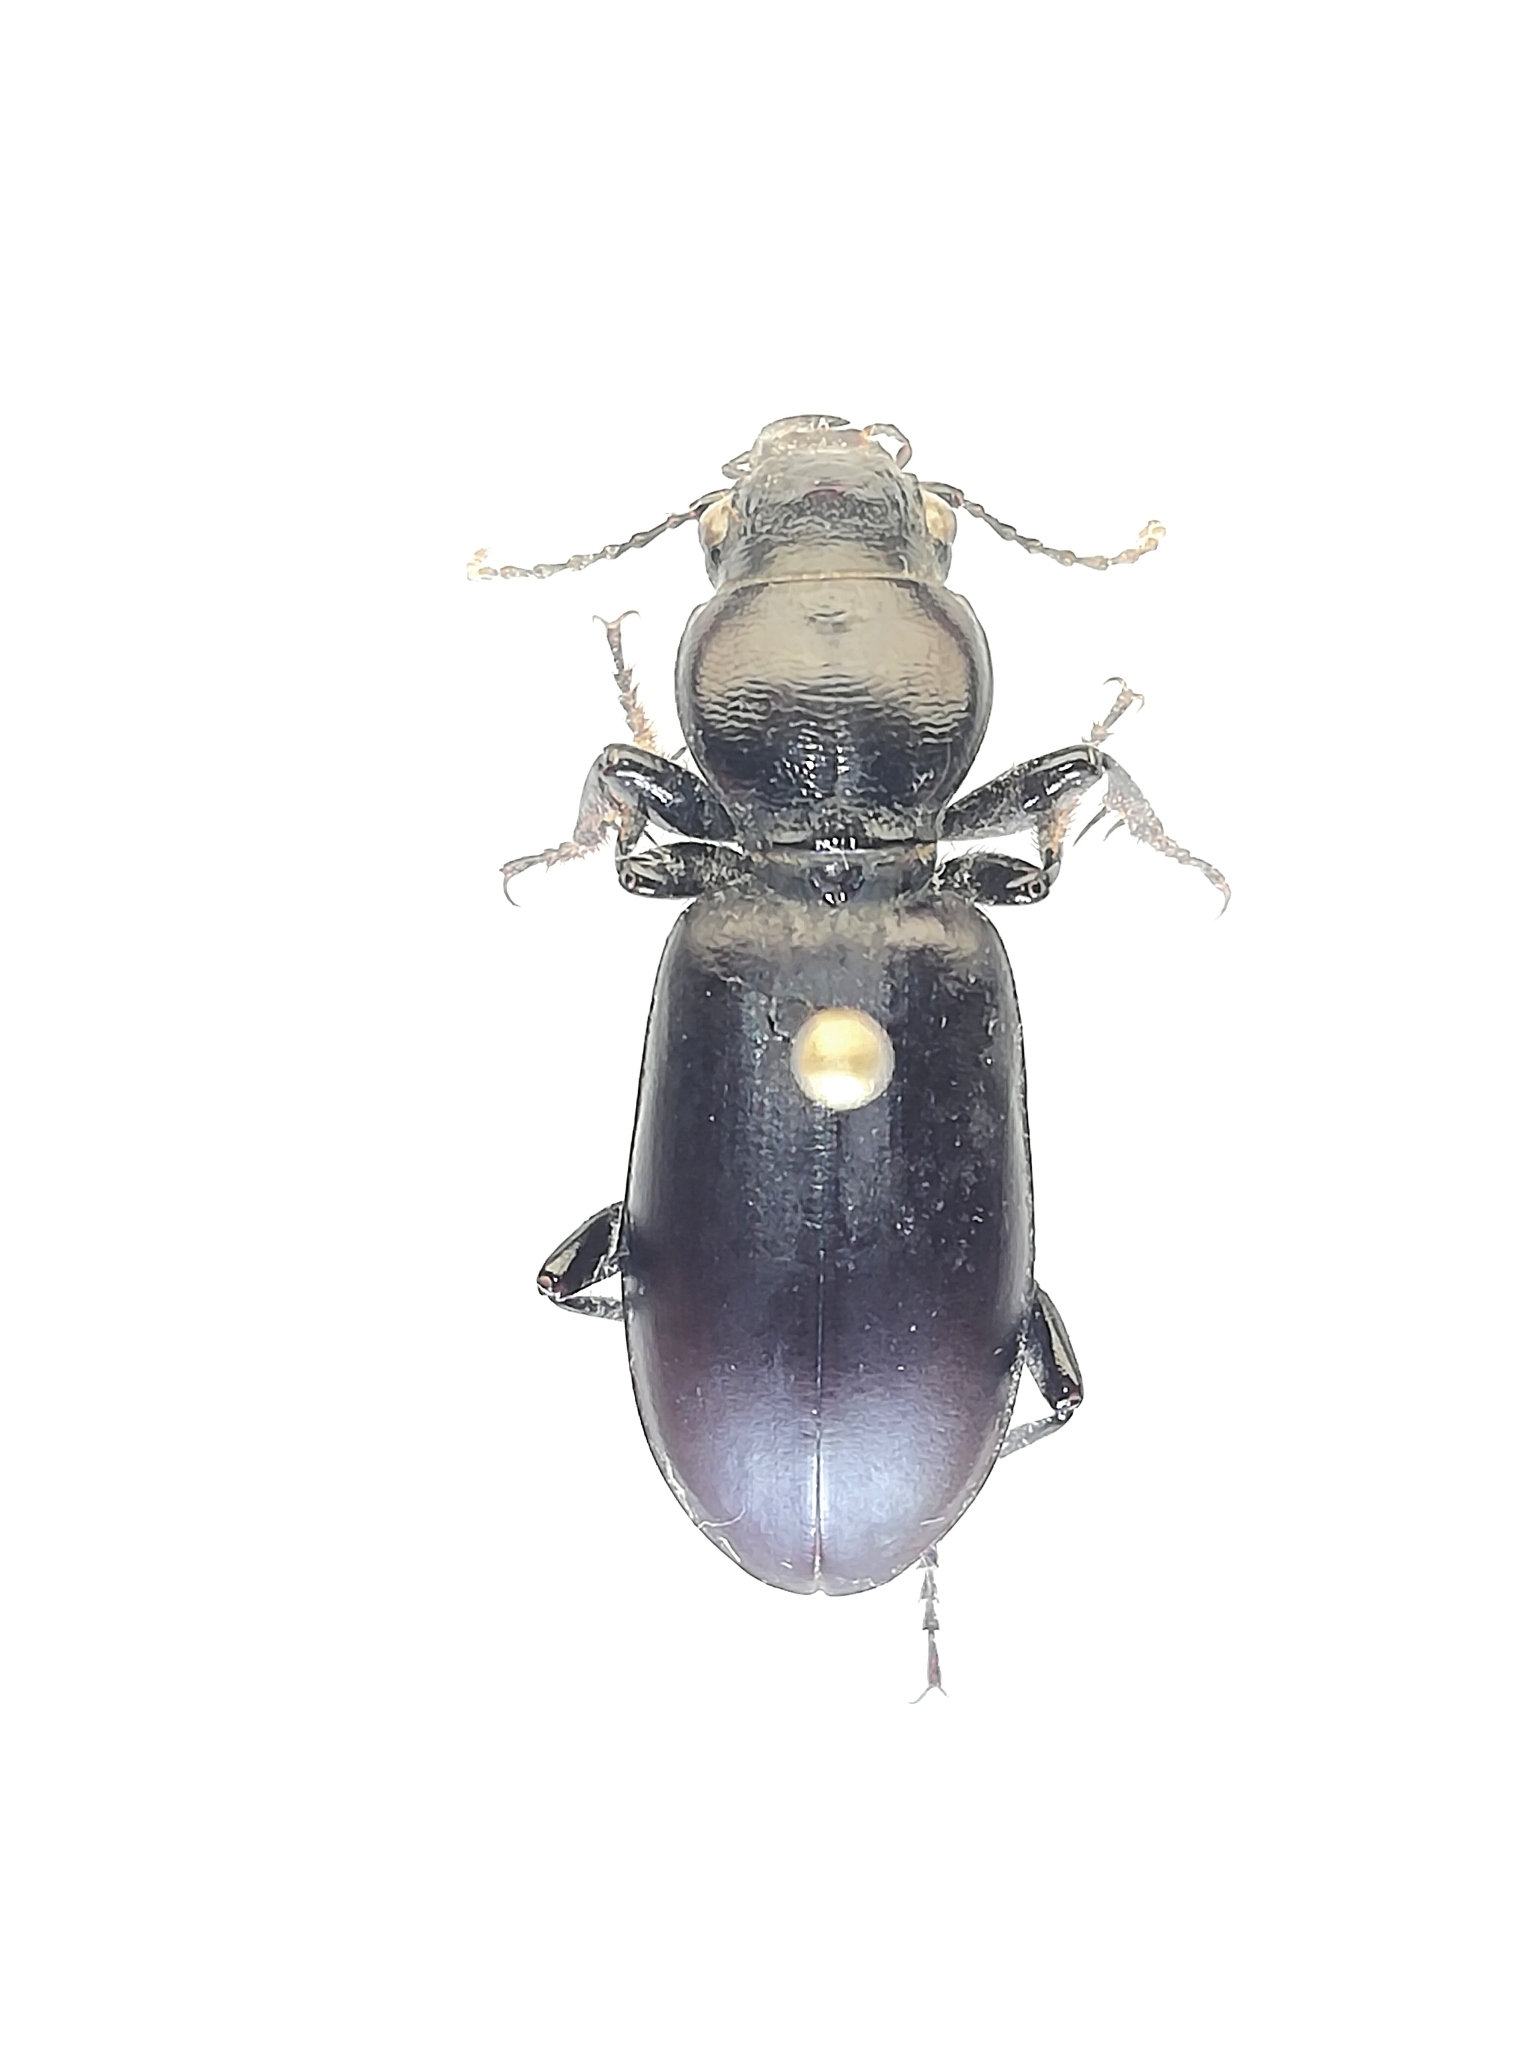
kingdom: Animalia
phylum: Arthropoda
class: Insecta
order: Coleoptera
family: Carabidae
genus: Broscus
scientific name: Broscus cephalotes
